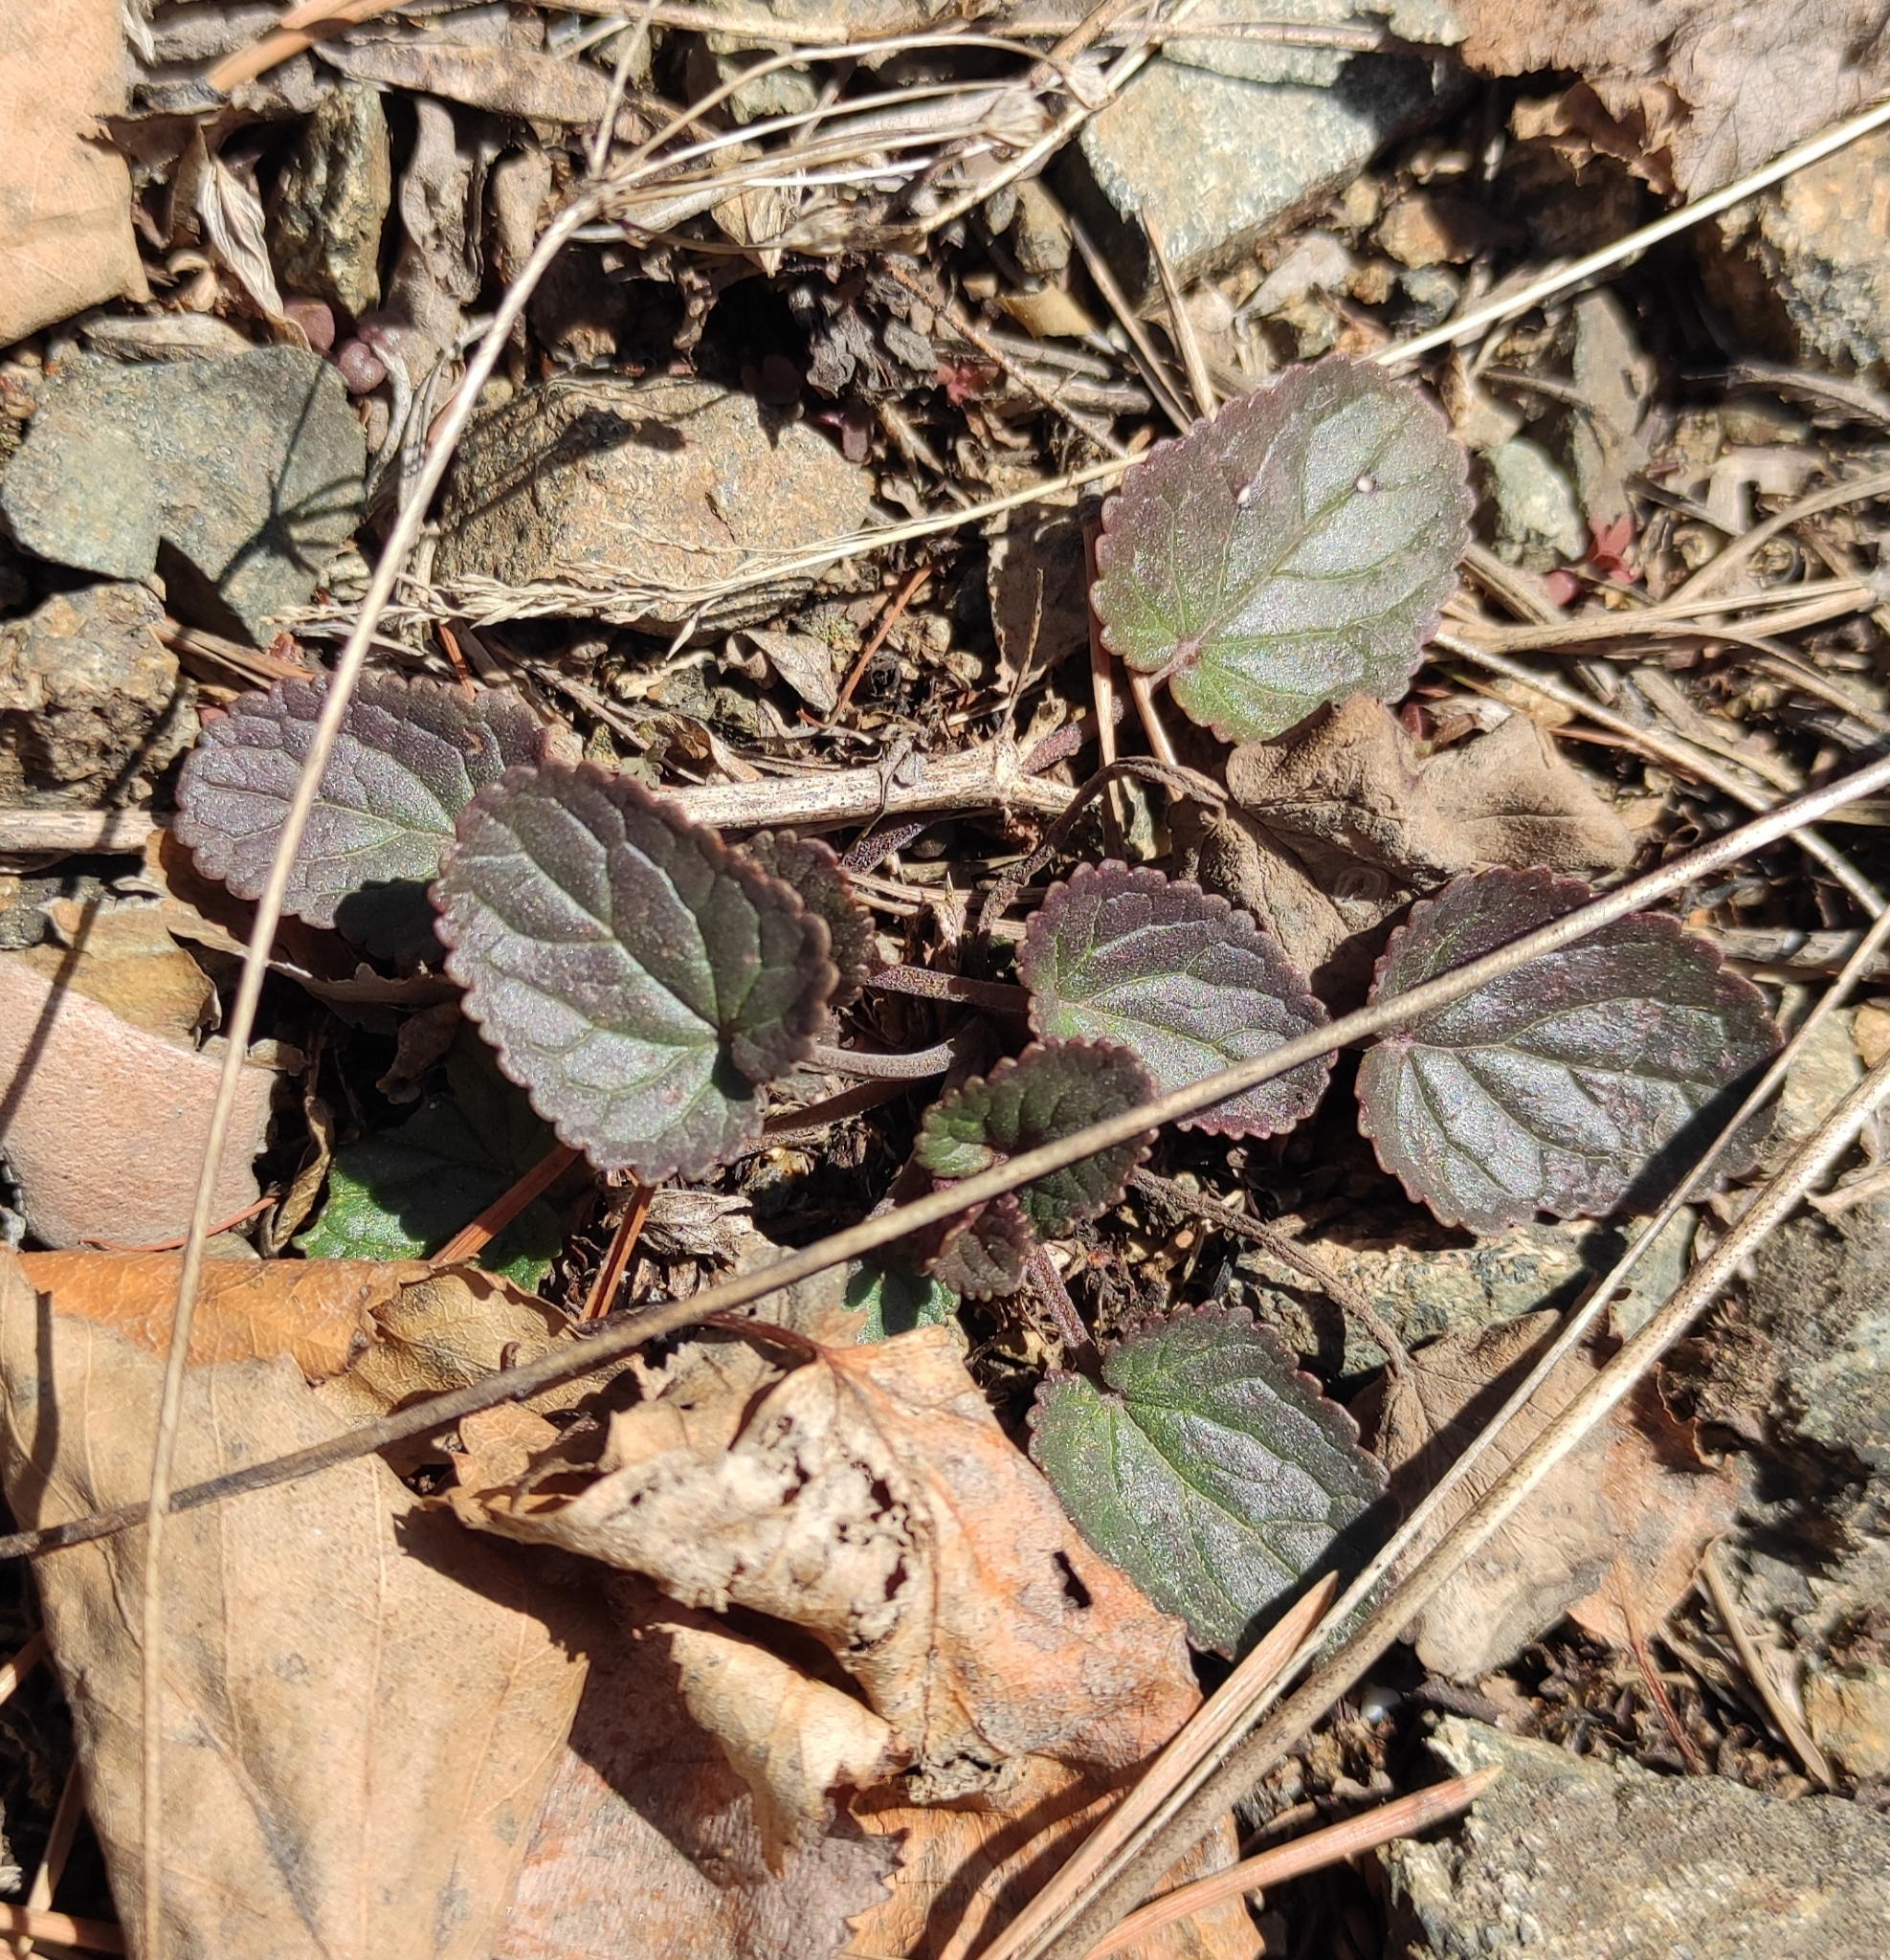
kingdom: Plantae
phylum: Tracheophyta
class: Magnoliopsida
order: Lamiales
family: Lamiaceae
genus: Dracocephalum
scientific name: Dracocephalum nutans
